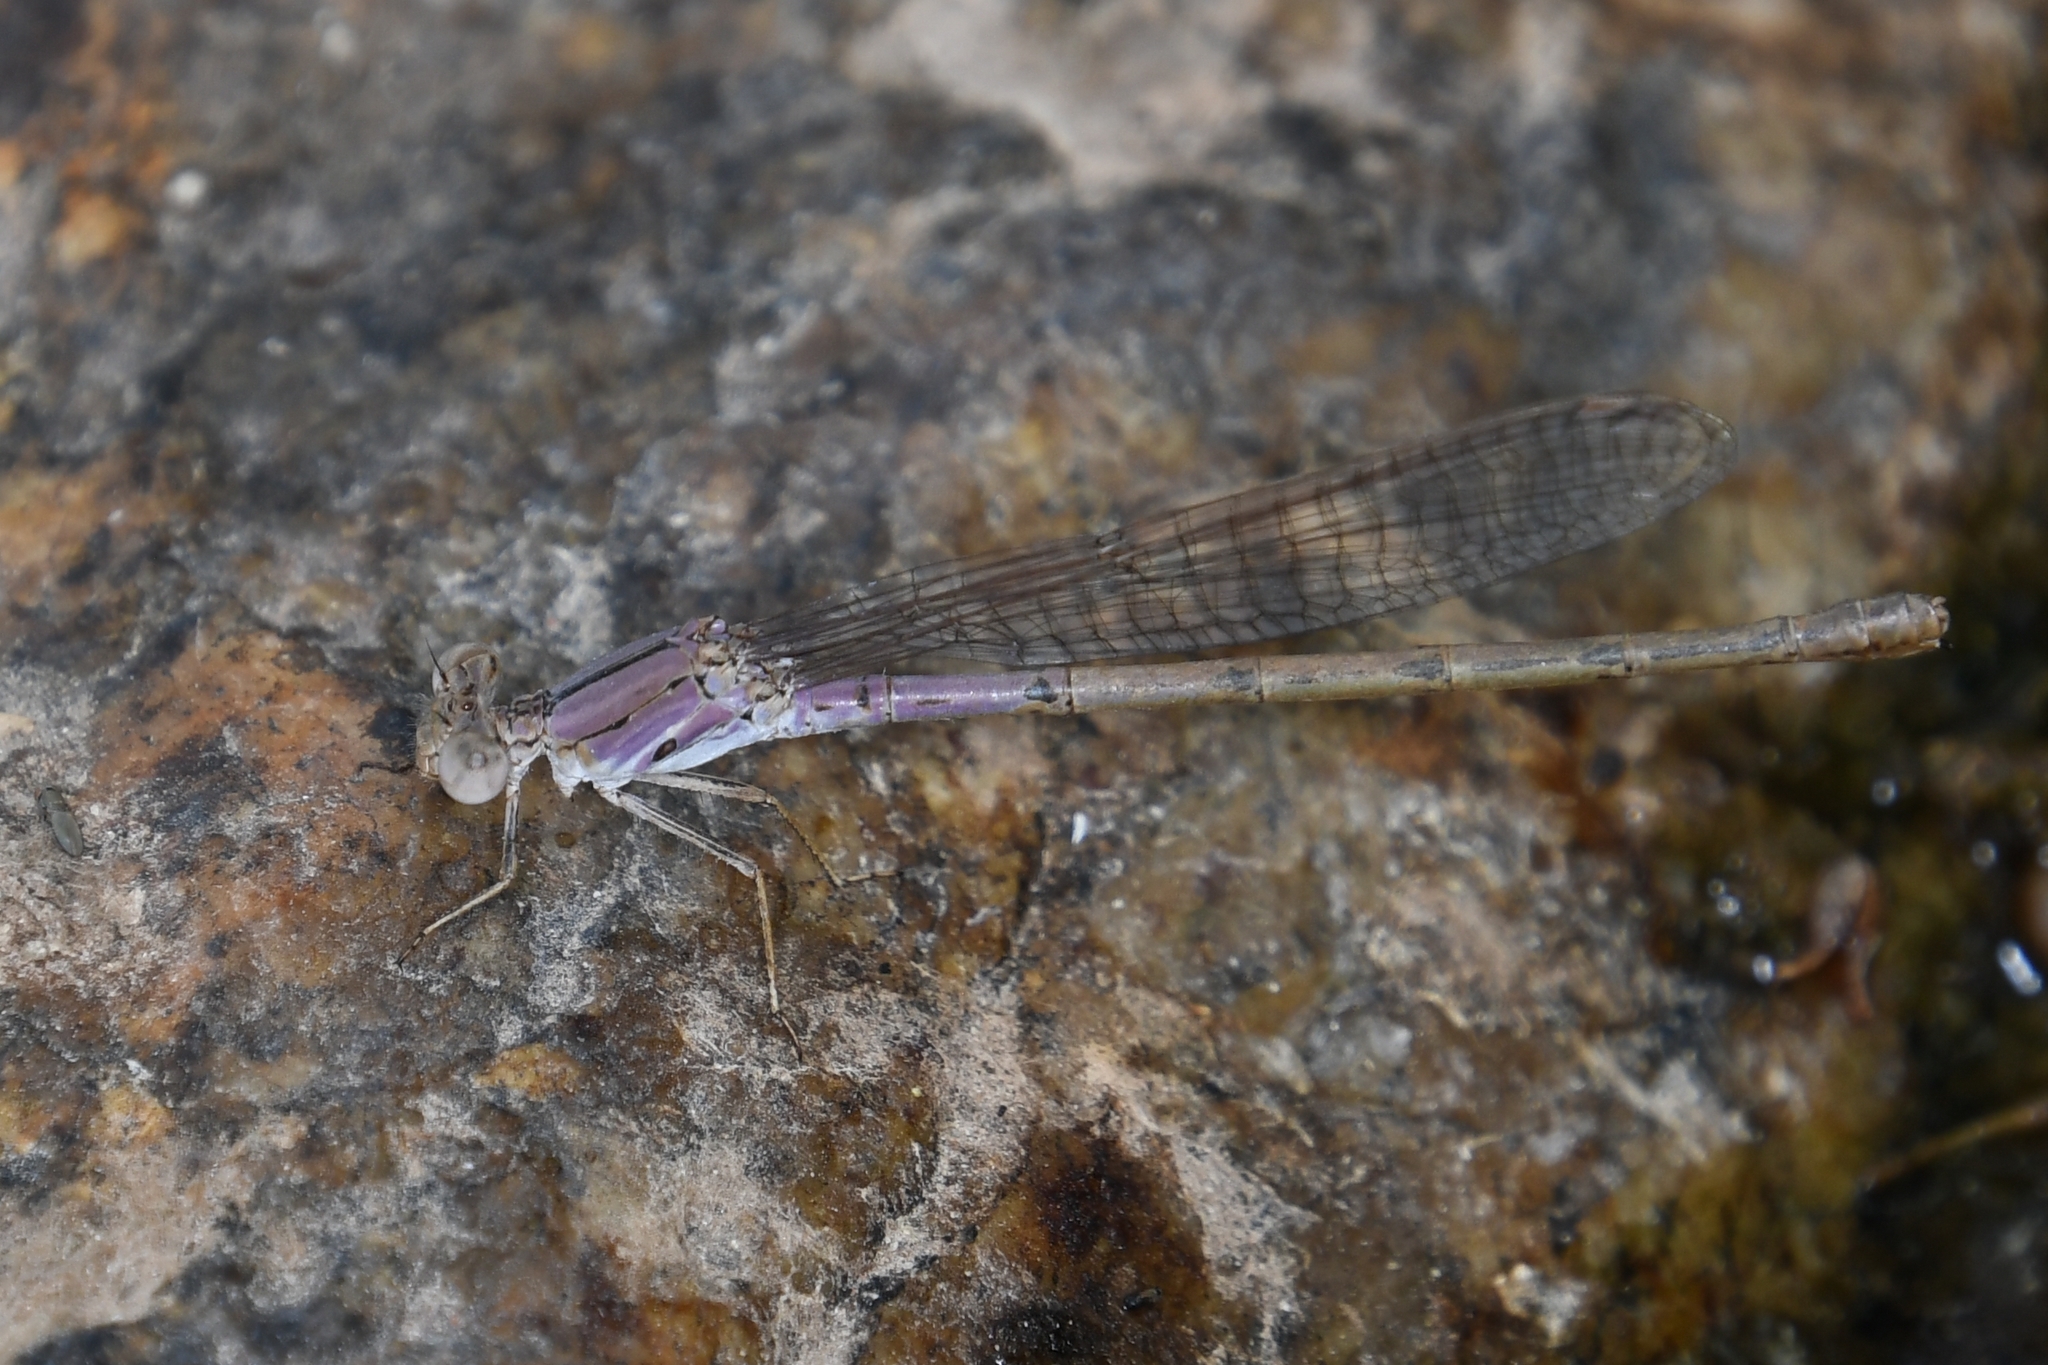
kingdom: Animalia
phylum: Arthropoda
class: Insecta
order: Odonata
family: Coenagrionidae
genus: Argia
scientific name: Argia pallens
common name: Amethyst dancer
